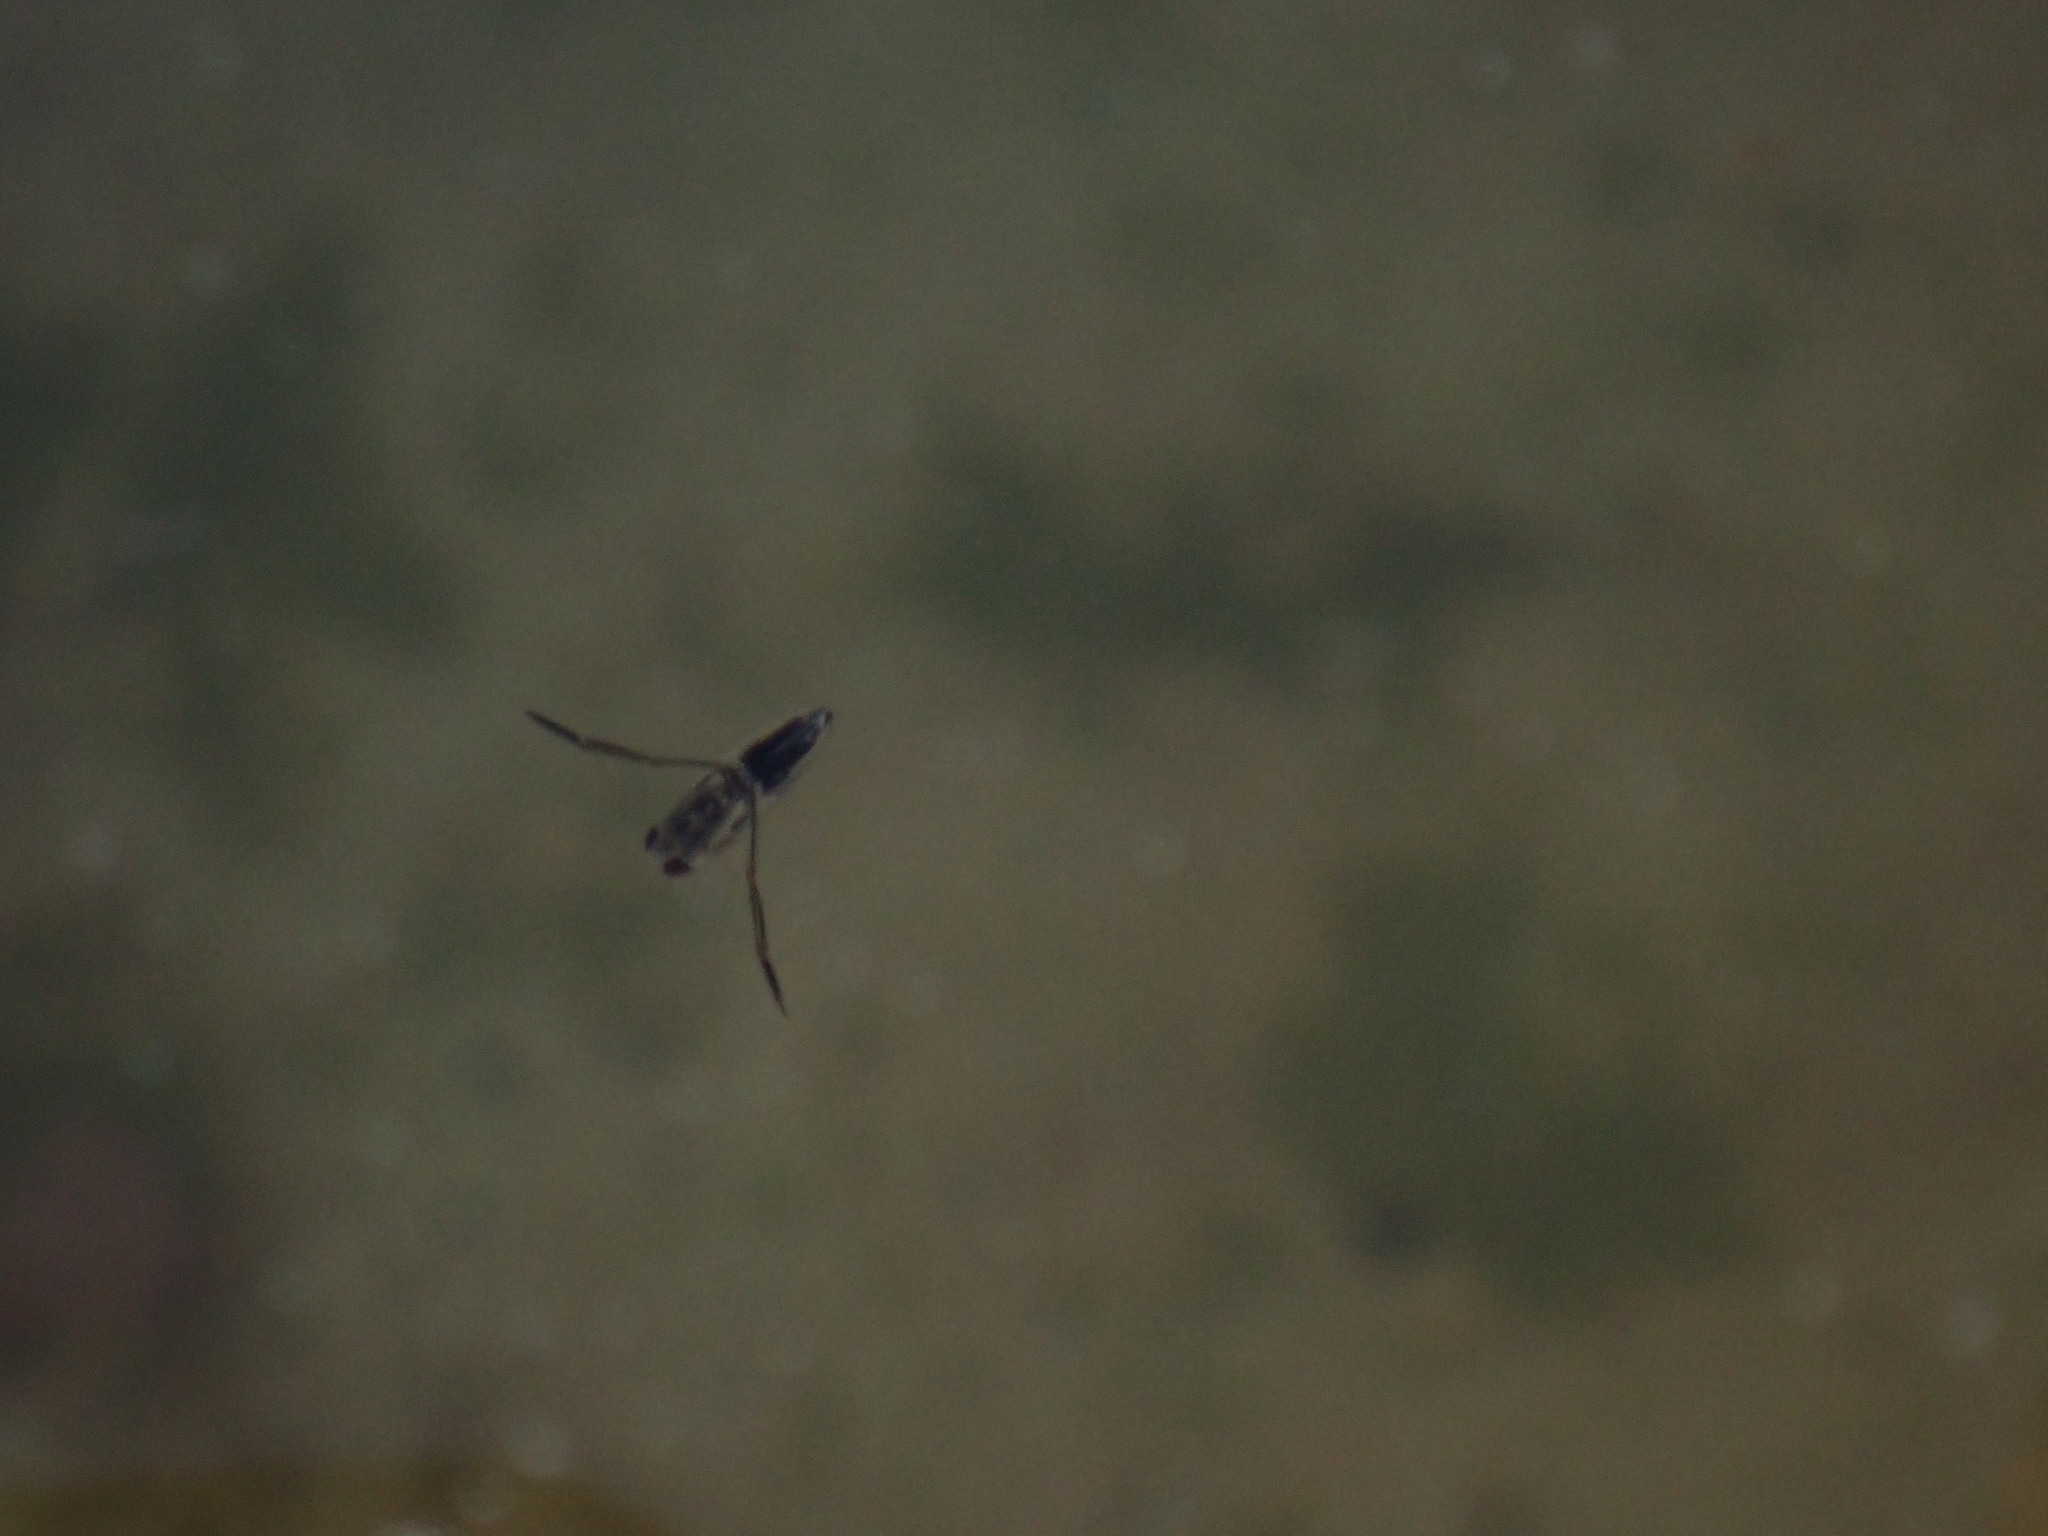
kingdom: Animalia
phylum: Arthropoda
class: Insecta
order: Hemiptera
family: Notonectidae
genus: Anisops
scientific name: Anisops sardeus
